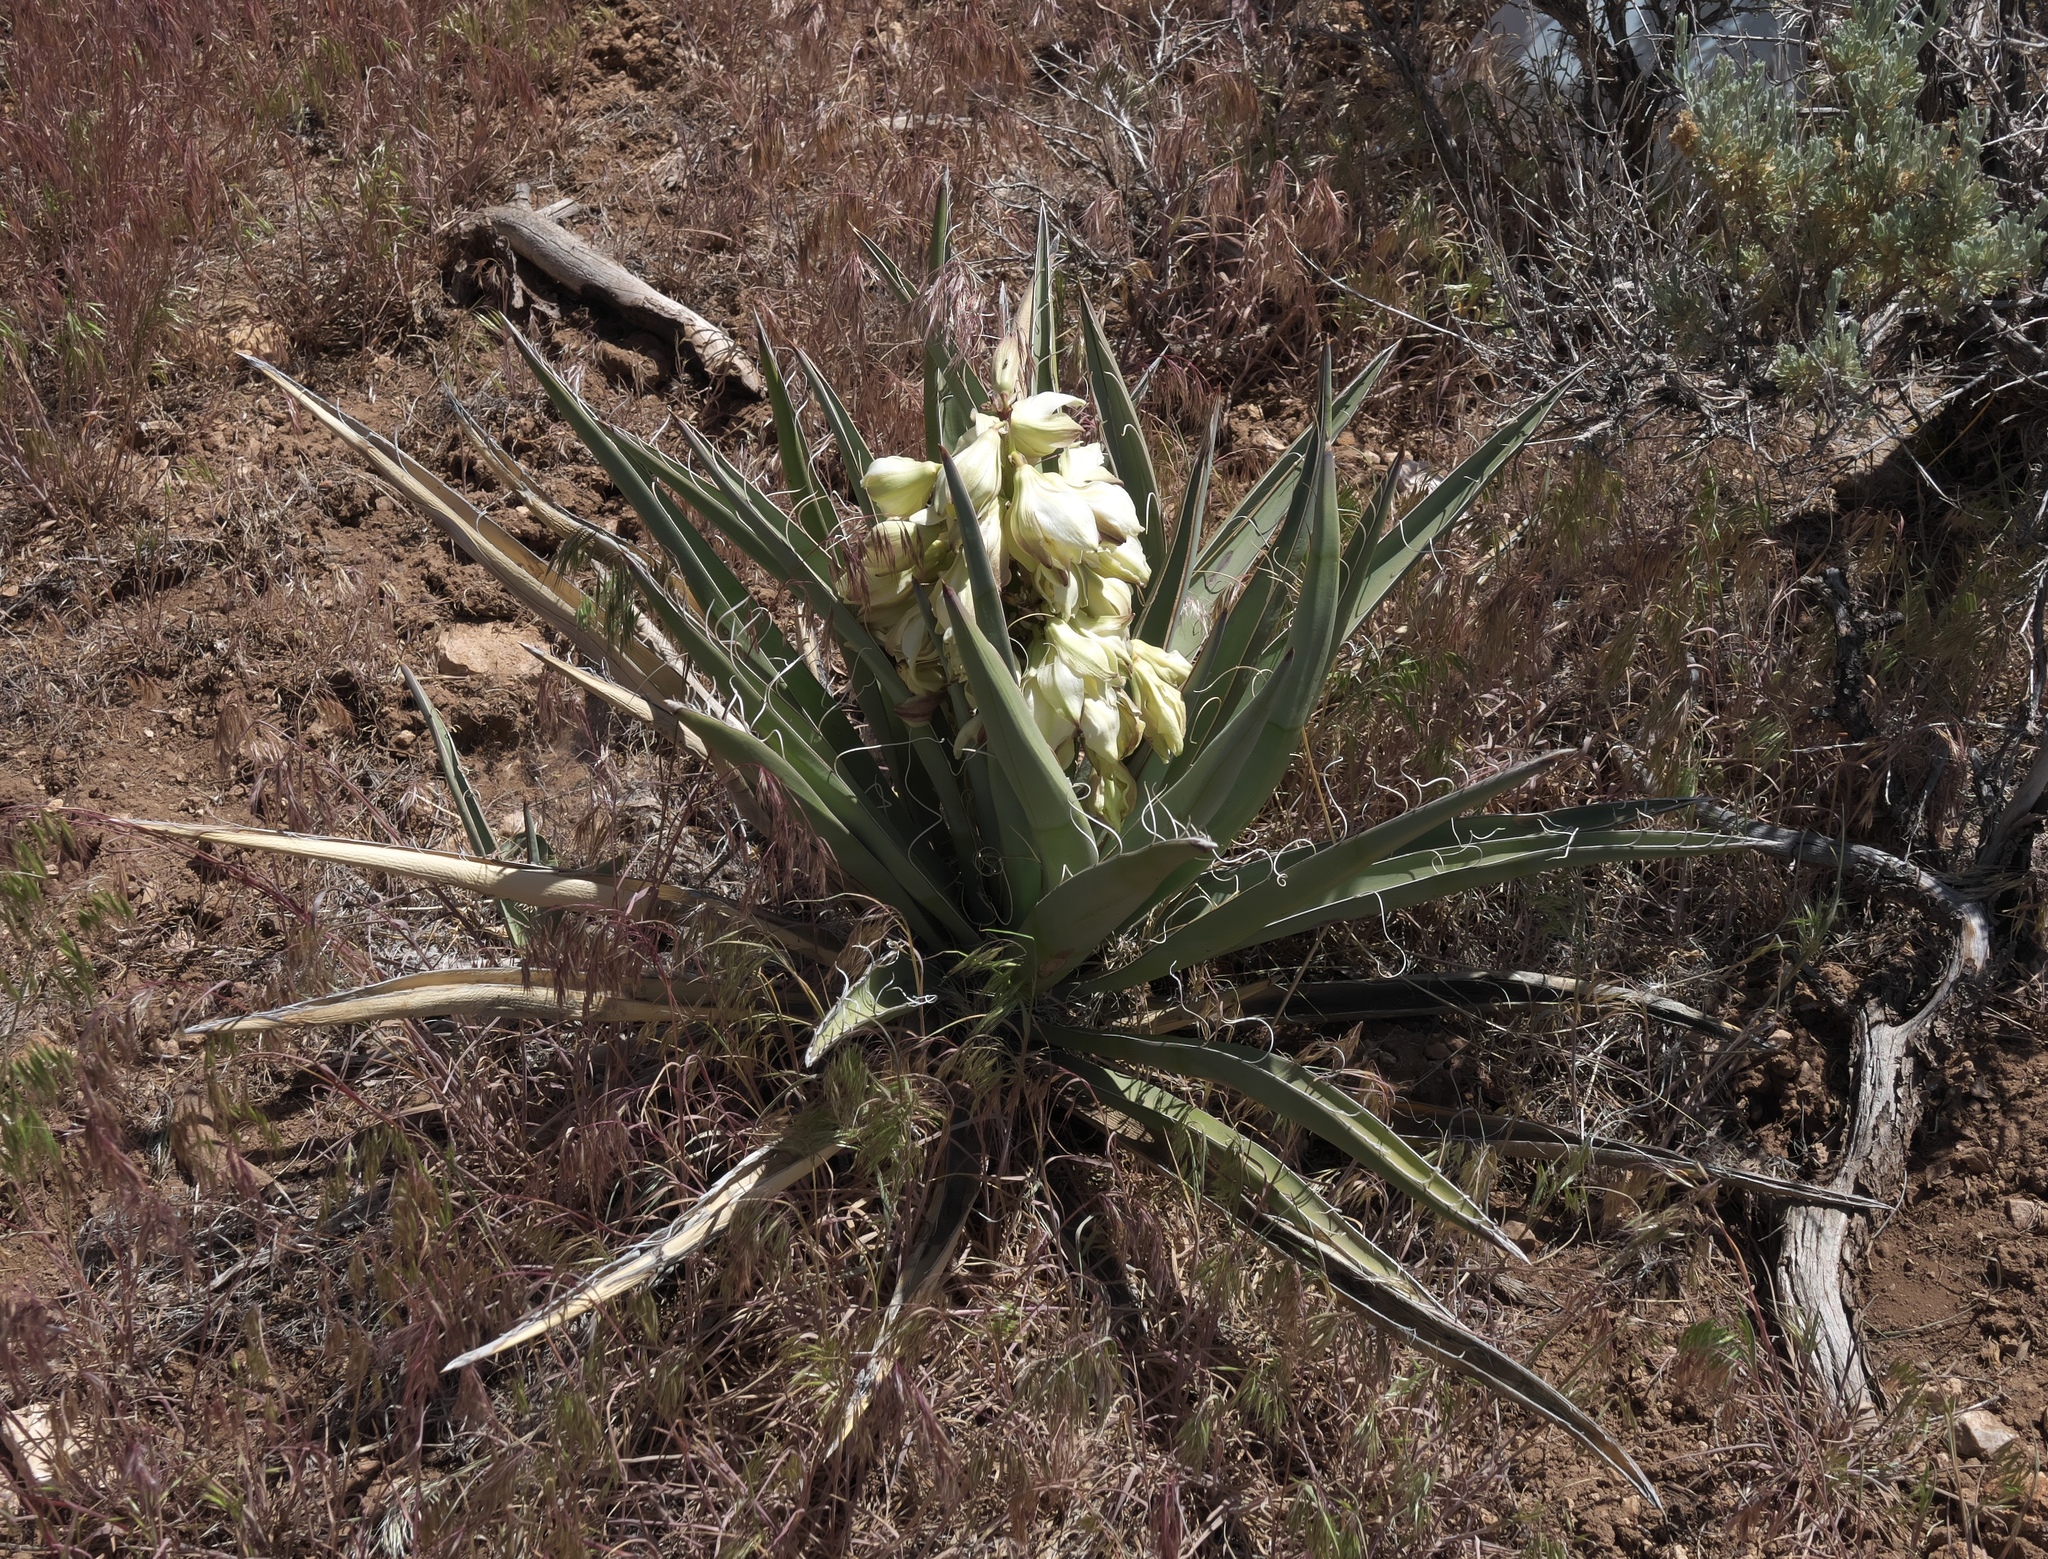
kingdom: Plantae
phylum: Tracheophyta
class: Liliopsida
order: Asparagales
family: Asparagaceae
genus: Yucca
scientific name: Yucca baccata
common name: Banana yucca
